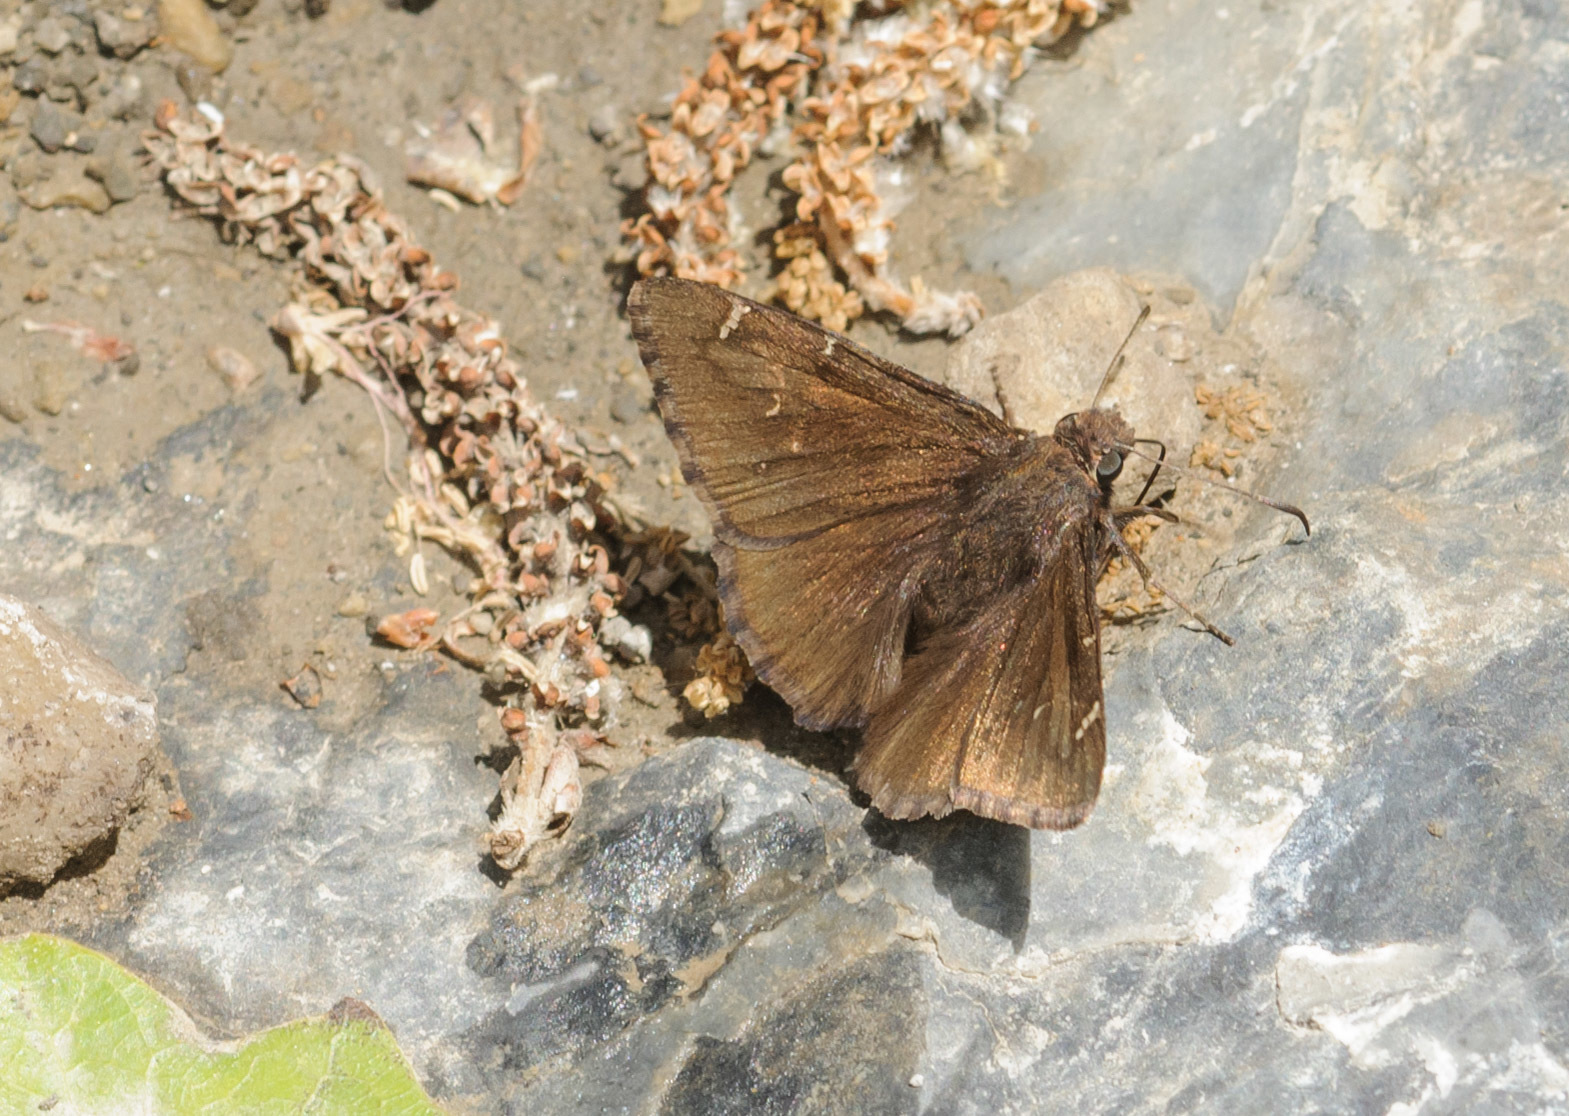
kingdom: Animalia
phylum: Arthropoda
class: Insecta
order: Lepidoptera
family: Hesperiidae
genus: Thorybes
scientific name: Thorybes pylades
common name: Northern cloudywing
